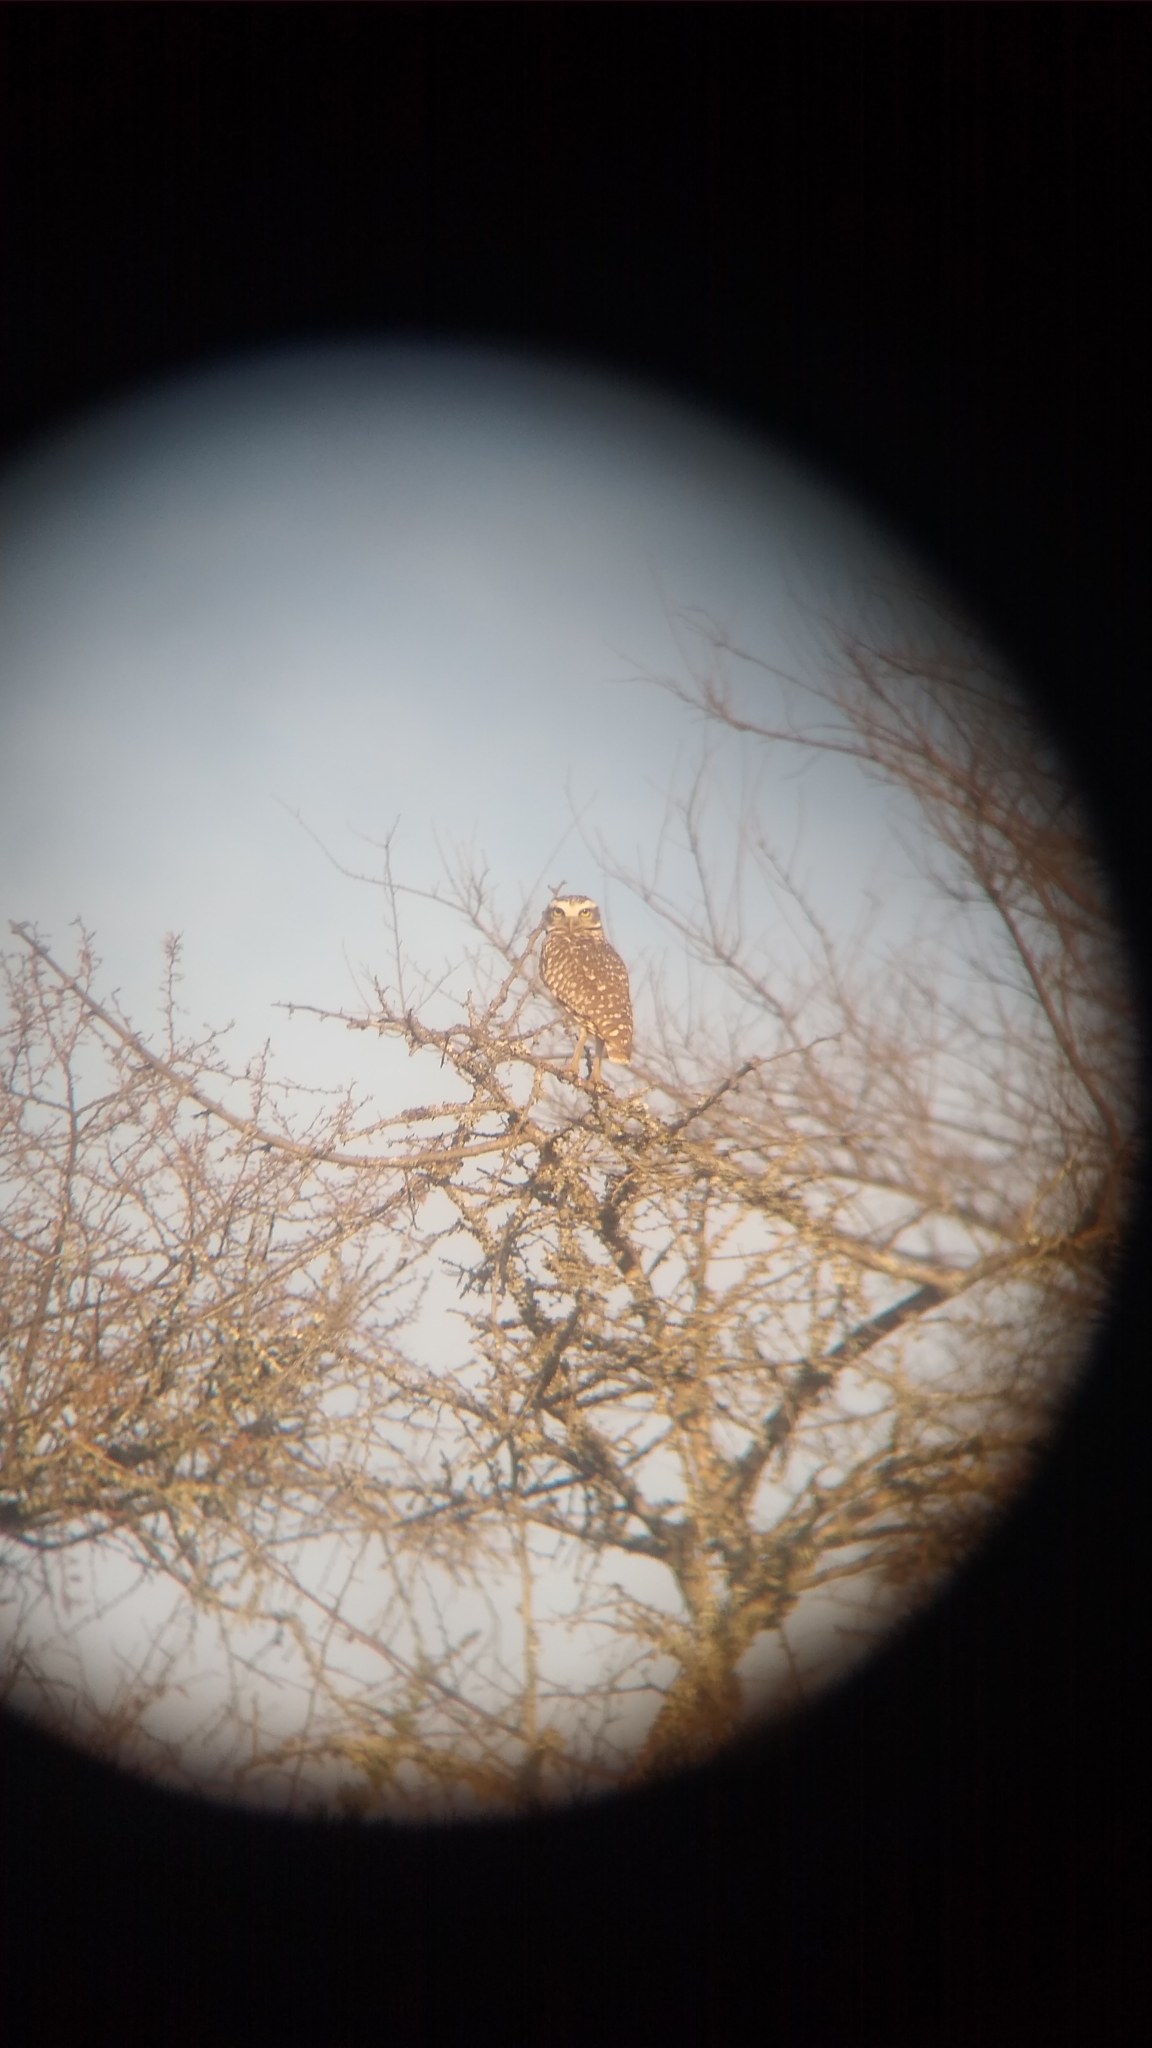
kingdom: Animalia
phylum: Chordata
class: Aves
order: Strigiformes
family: Strigidae
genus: Athene
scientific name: Athene cunicularia
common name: Burrowing owl
